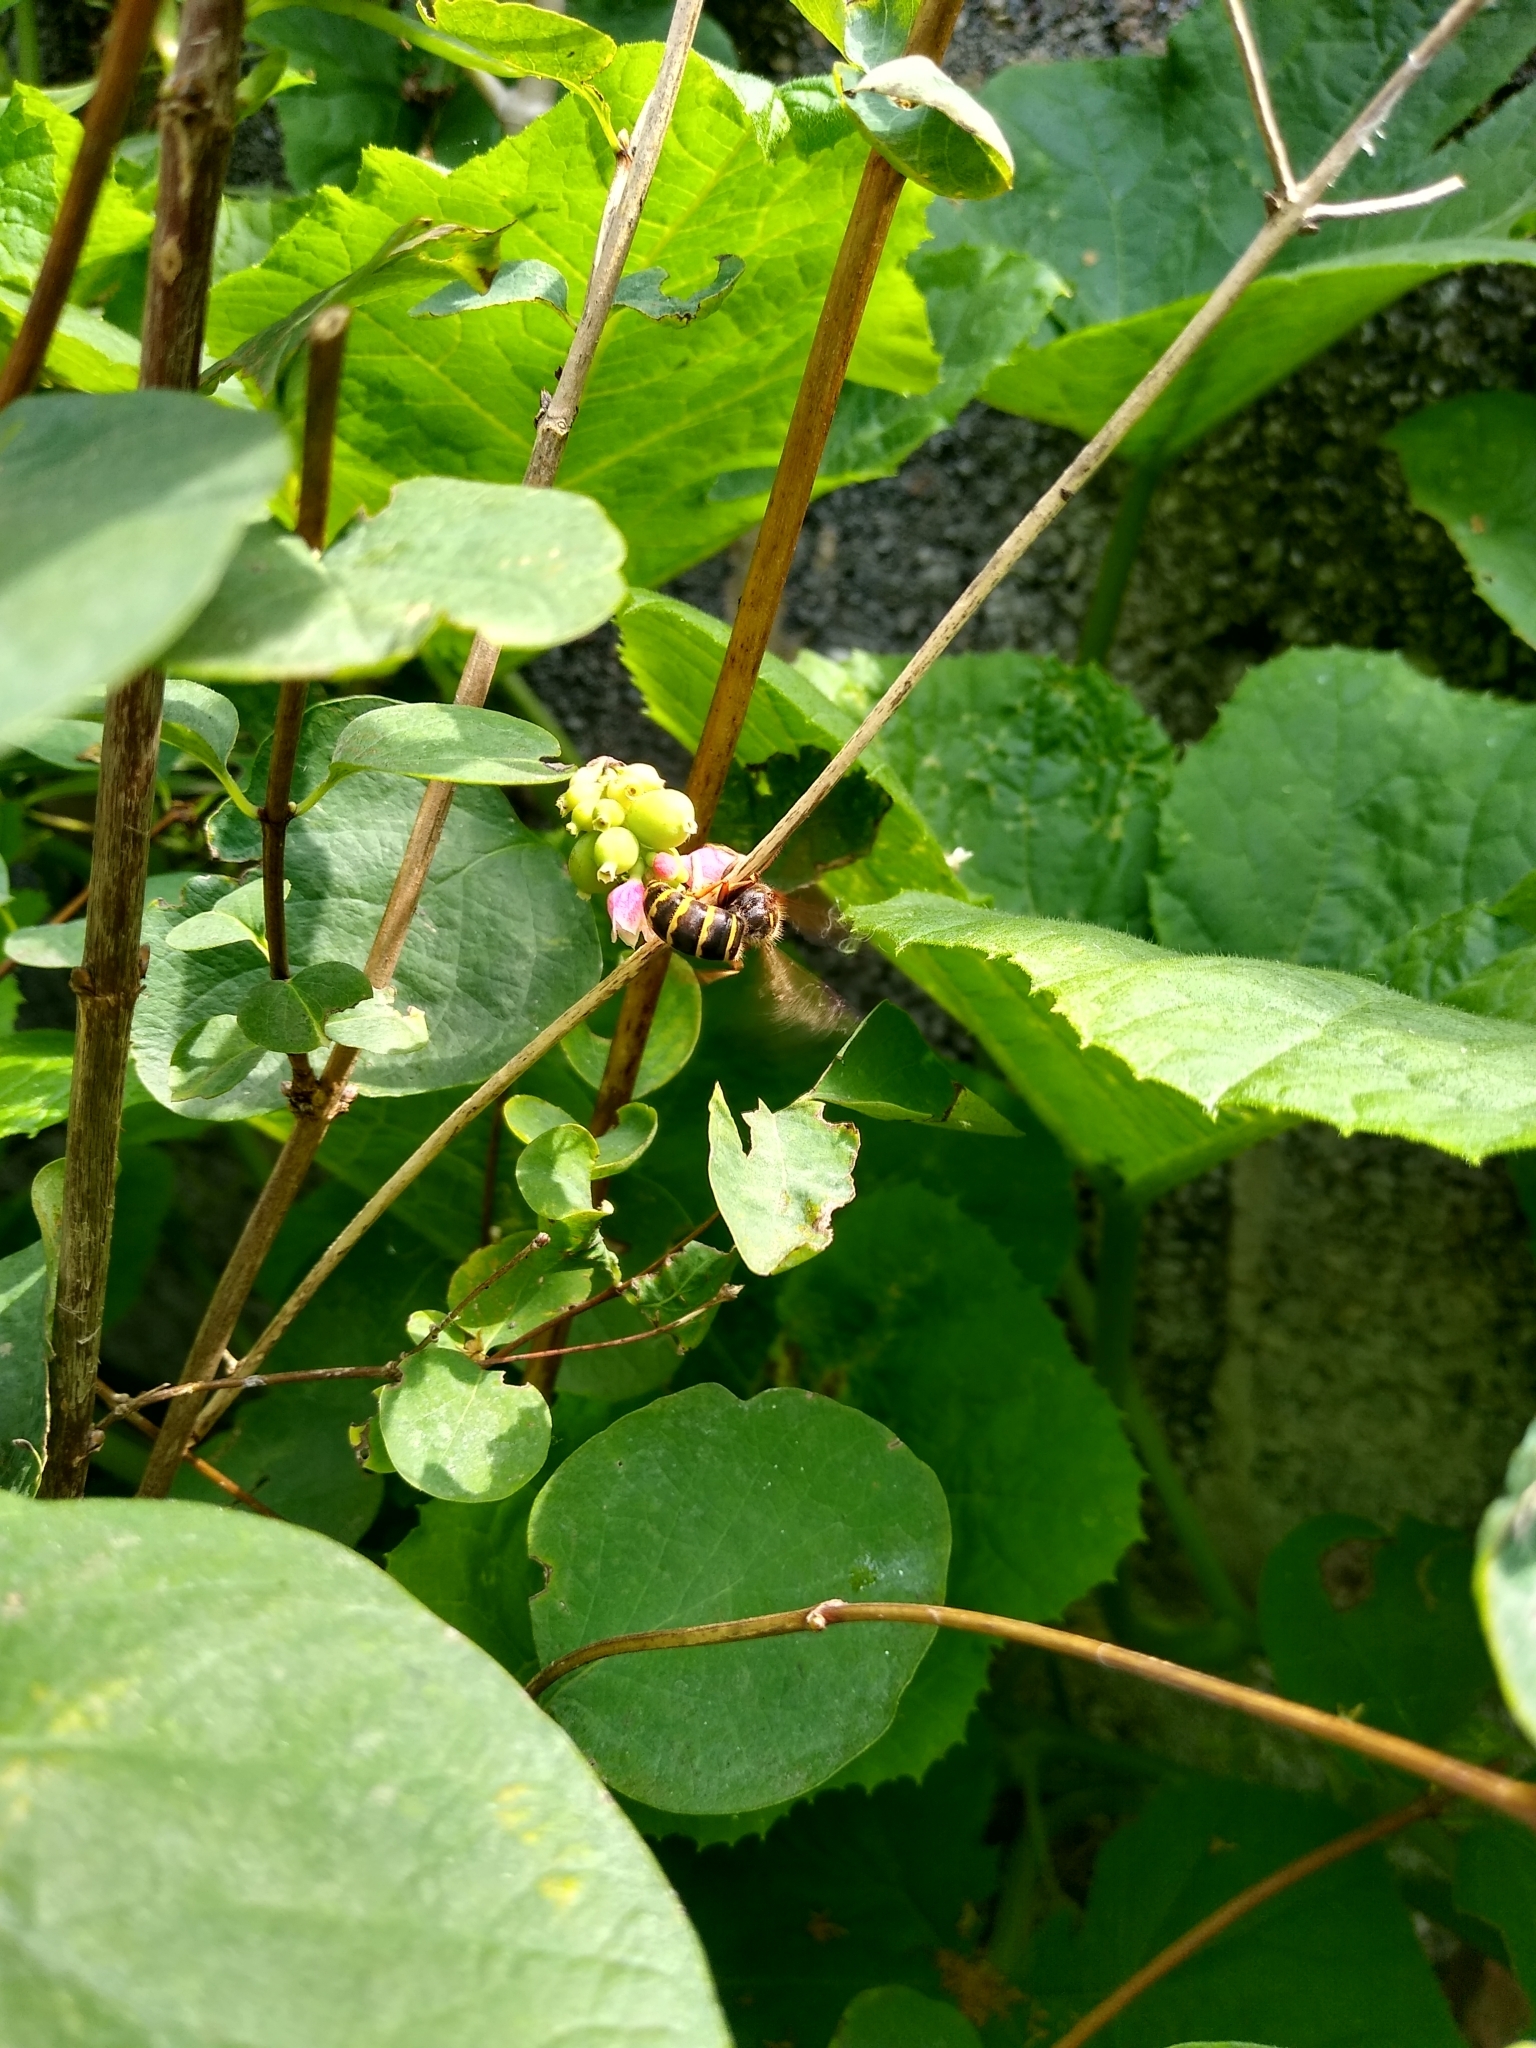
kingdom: Plantae
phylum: Tracheophyta
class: Magnoliopsida
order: Dipsacales
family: Caprifoliaceae
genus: Symphoricarpos
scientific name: Symphoricarpos albus
